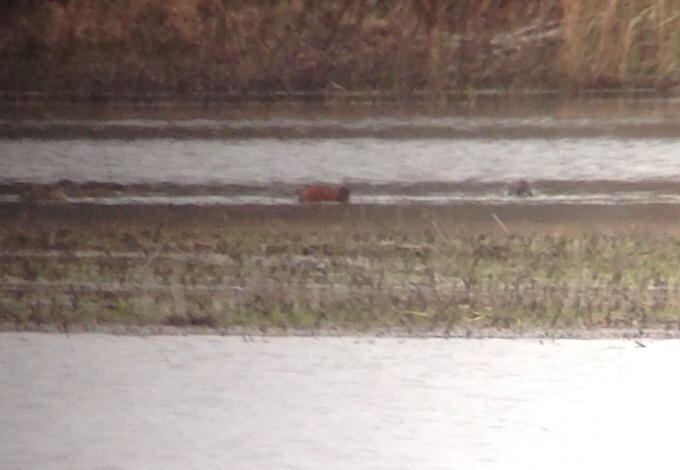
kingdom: Animalia
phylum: Chordata
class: Aves
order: Anseriformes
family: Anatidae
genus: Spatula
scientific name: Spatula cyanoptera
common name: Cinnamon teal
